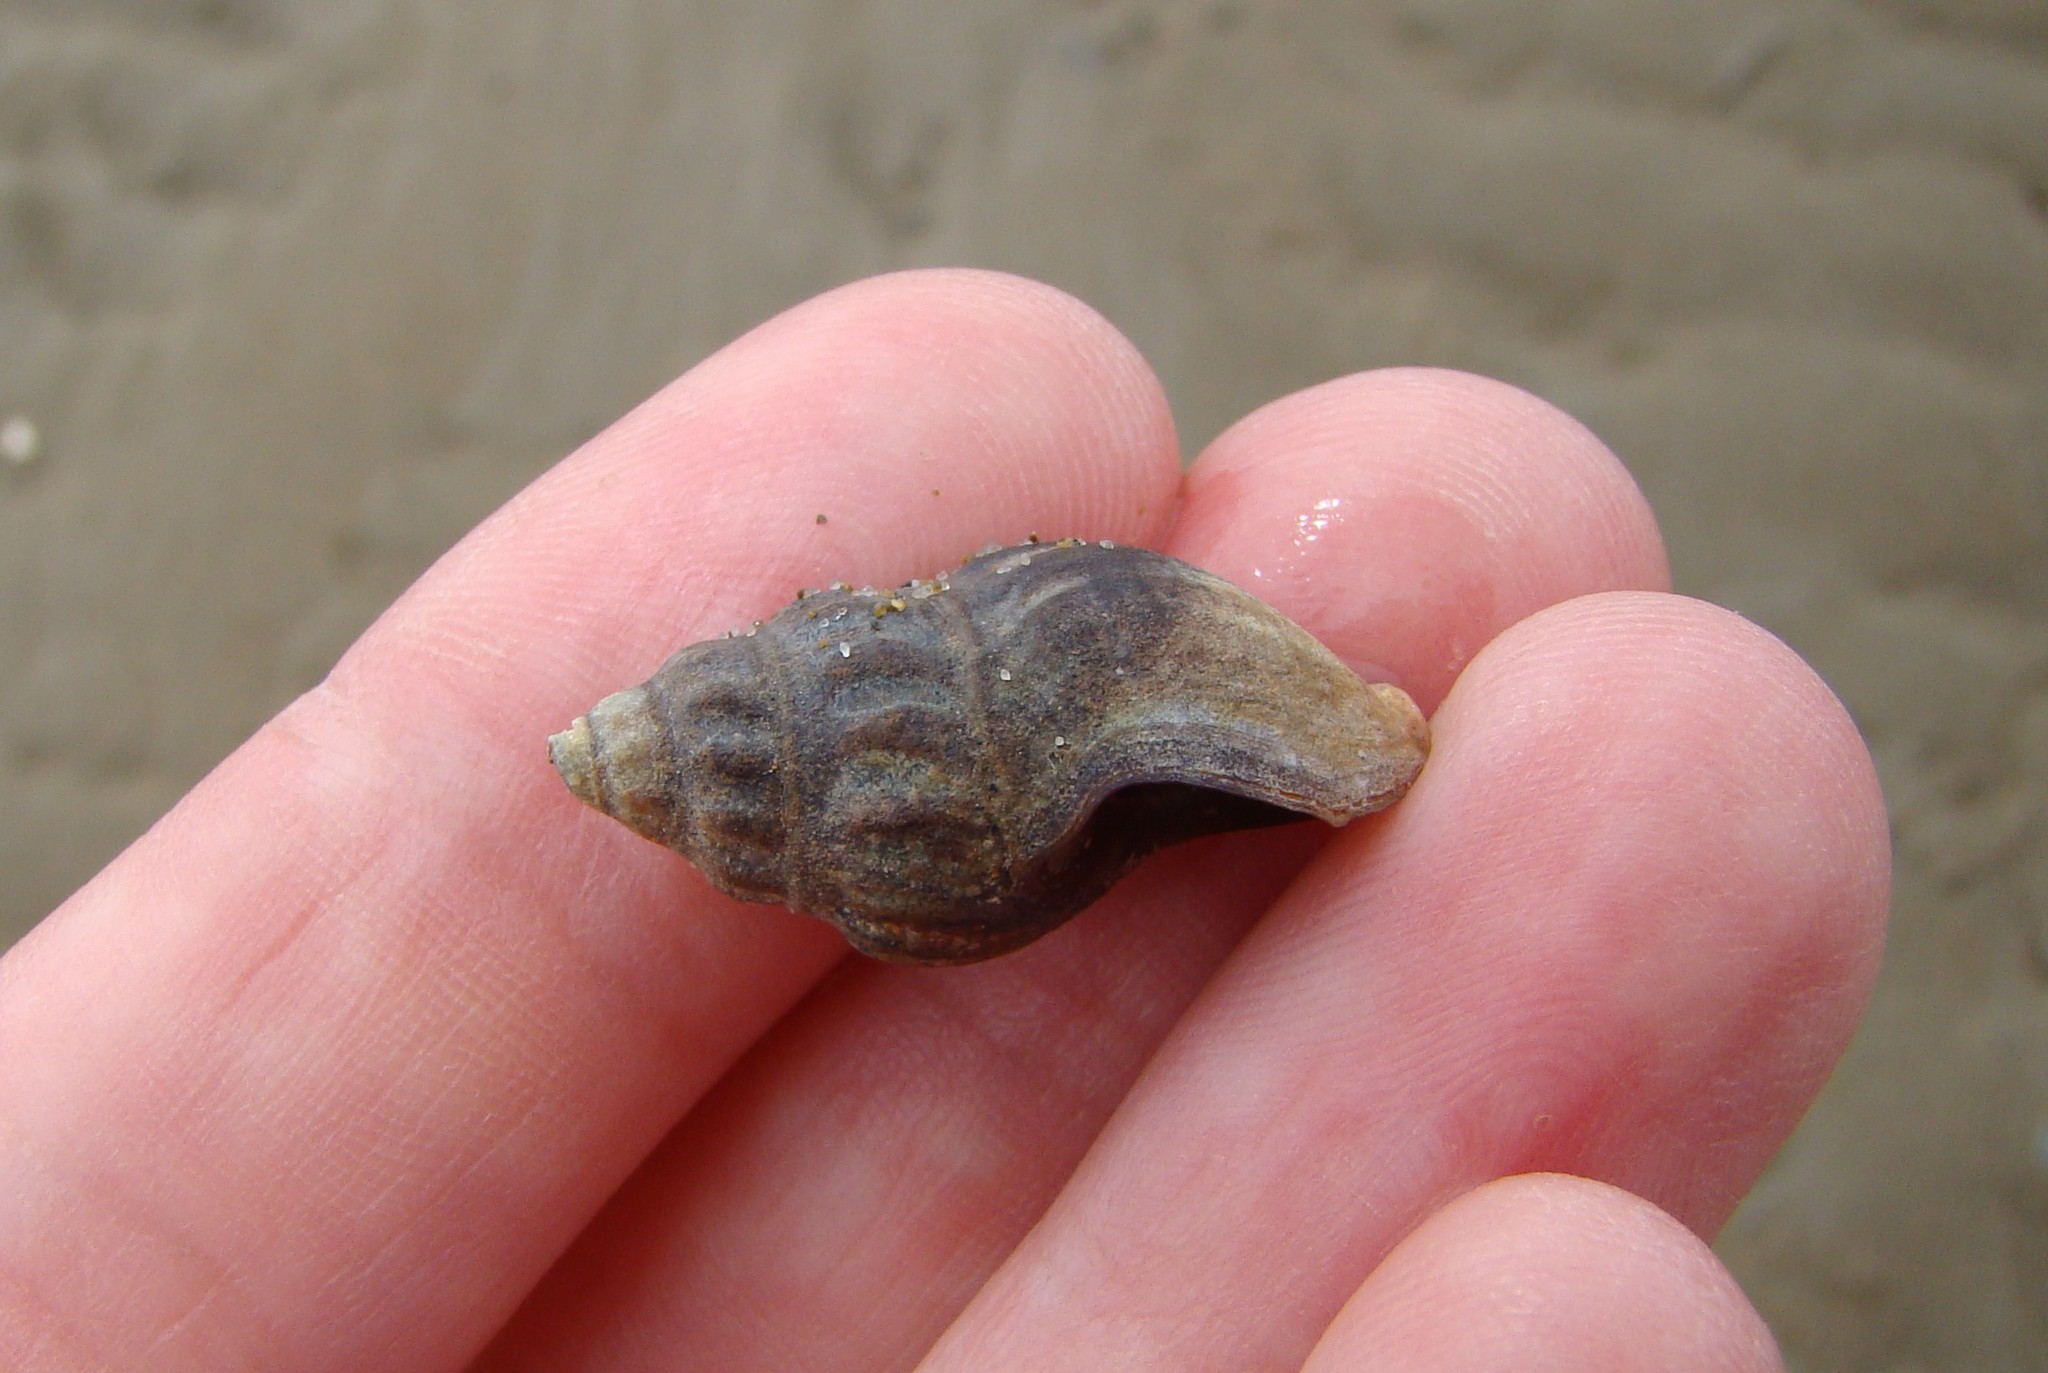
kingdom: Animalia
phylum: Mollusca
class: Gastropoda
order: Neogastropoda
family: Cominellidae
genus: Cominella
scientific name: Cominella glandiformis
